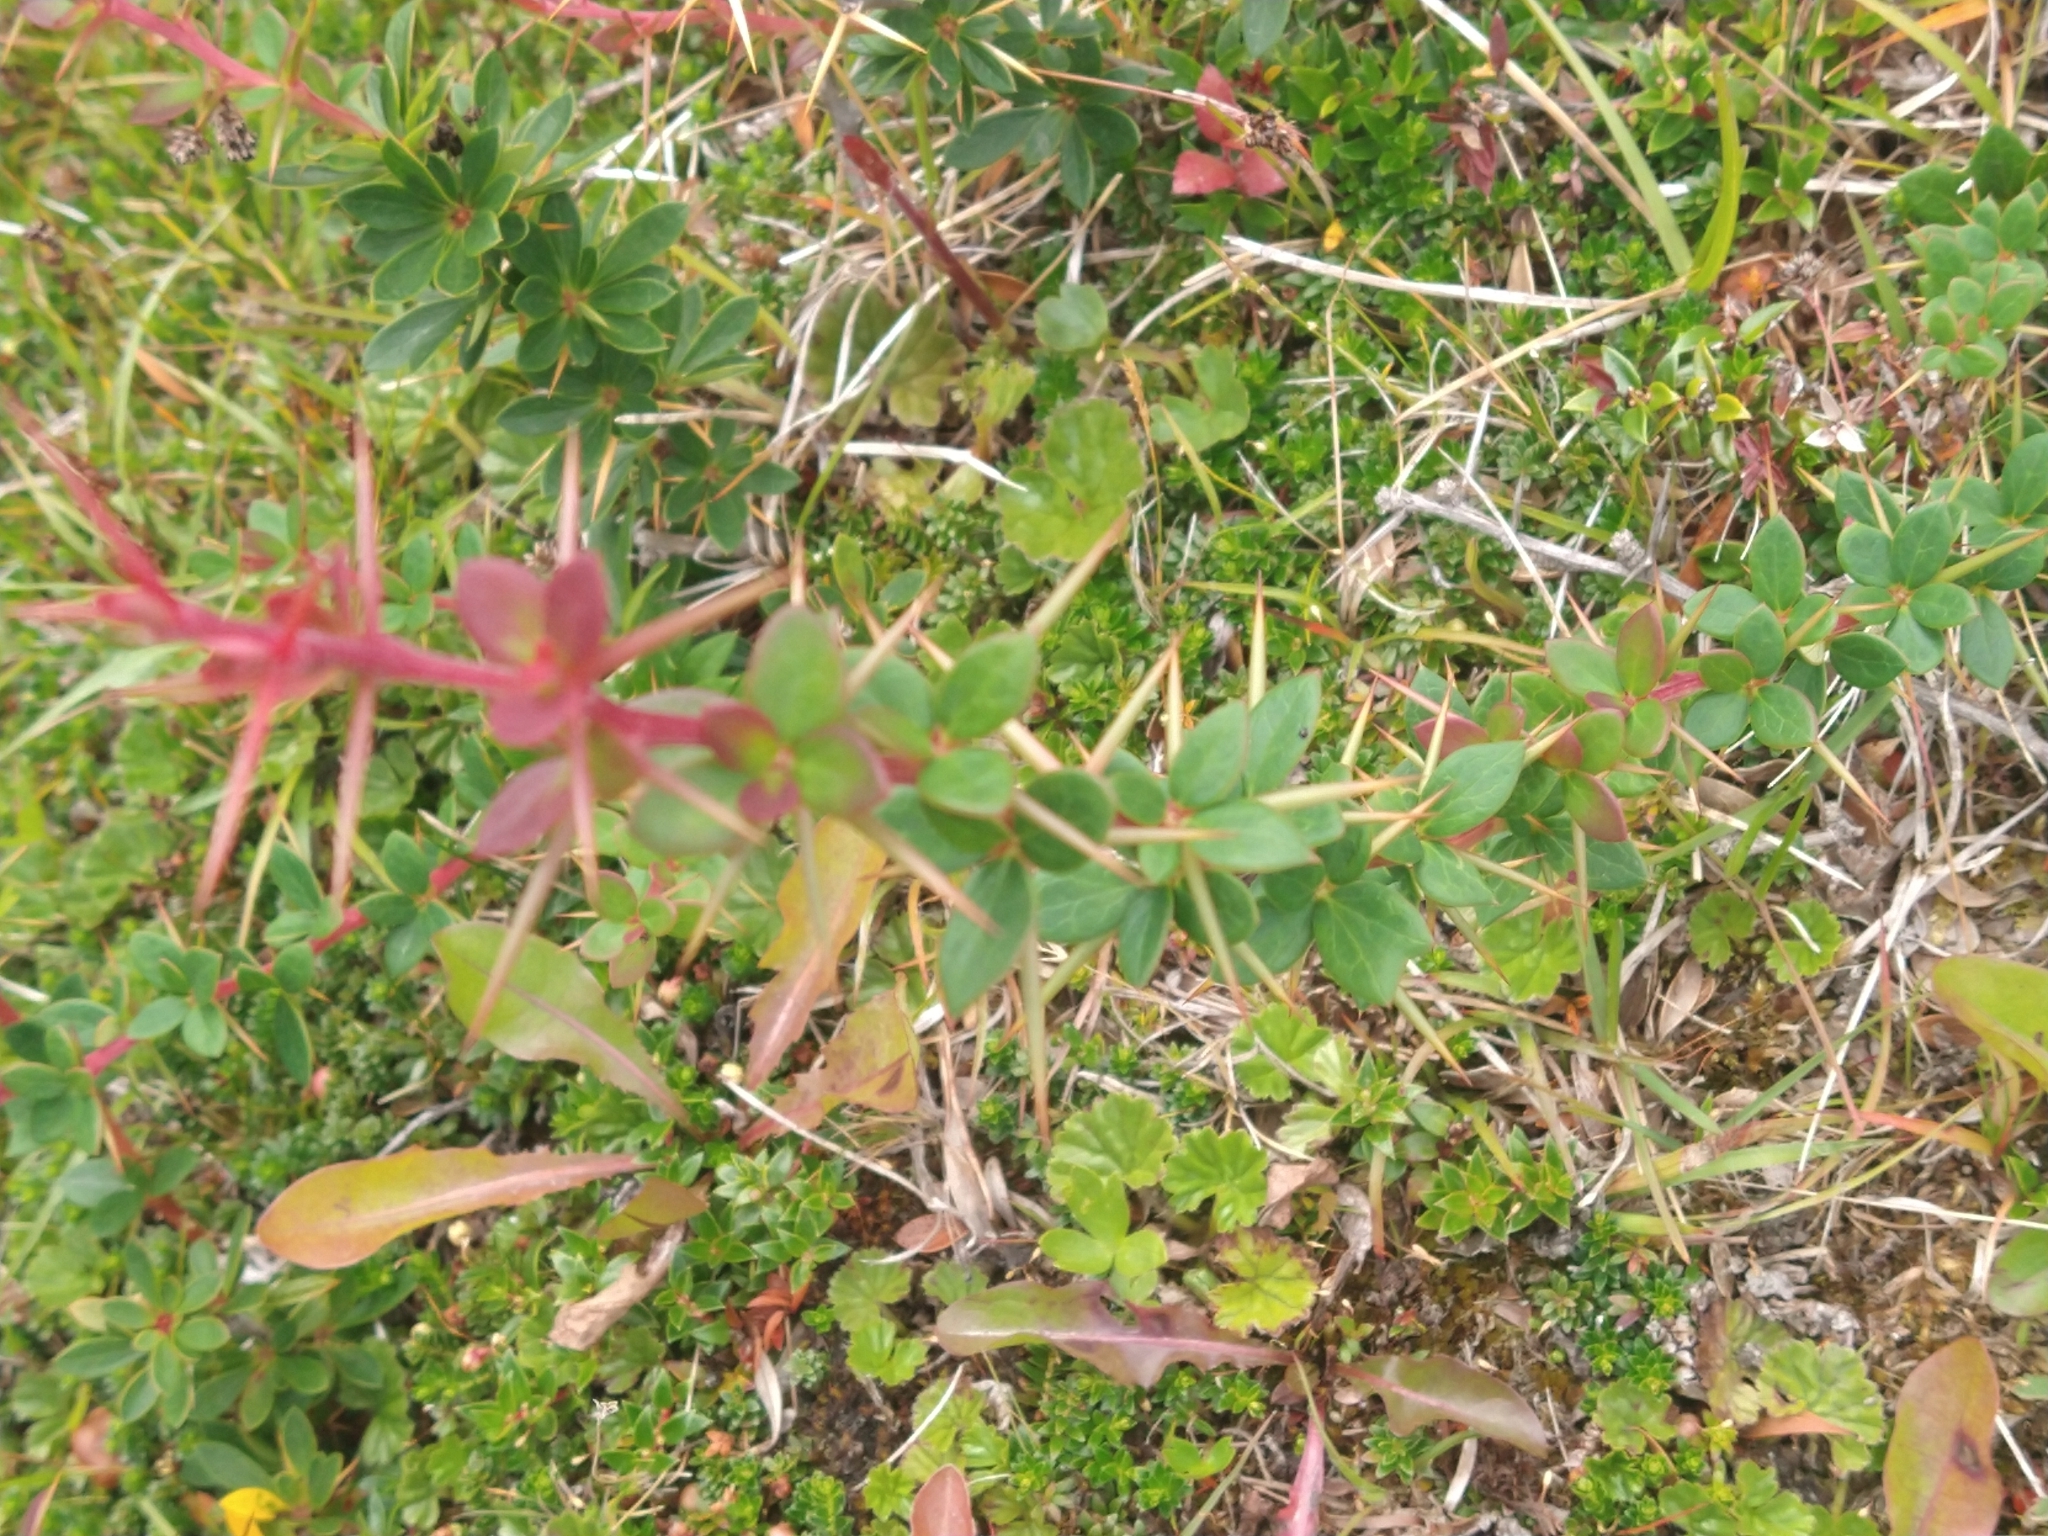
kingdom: Plantae
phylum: Tracheophyta
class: Magnoliopsida
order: Ranunculales
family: Berberidaceae
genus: Berberis
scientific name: Berberis microphylla
